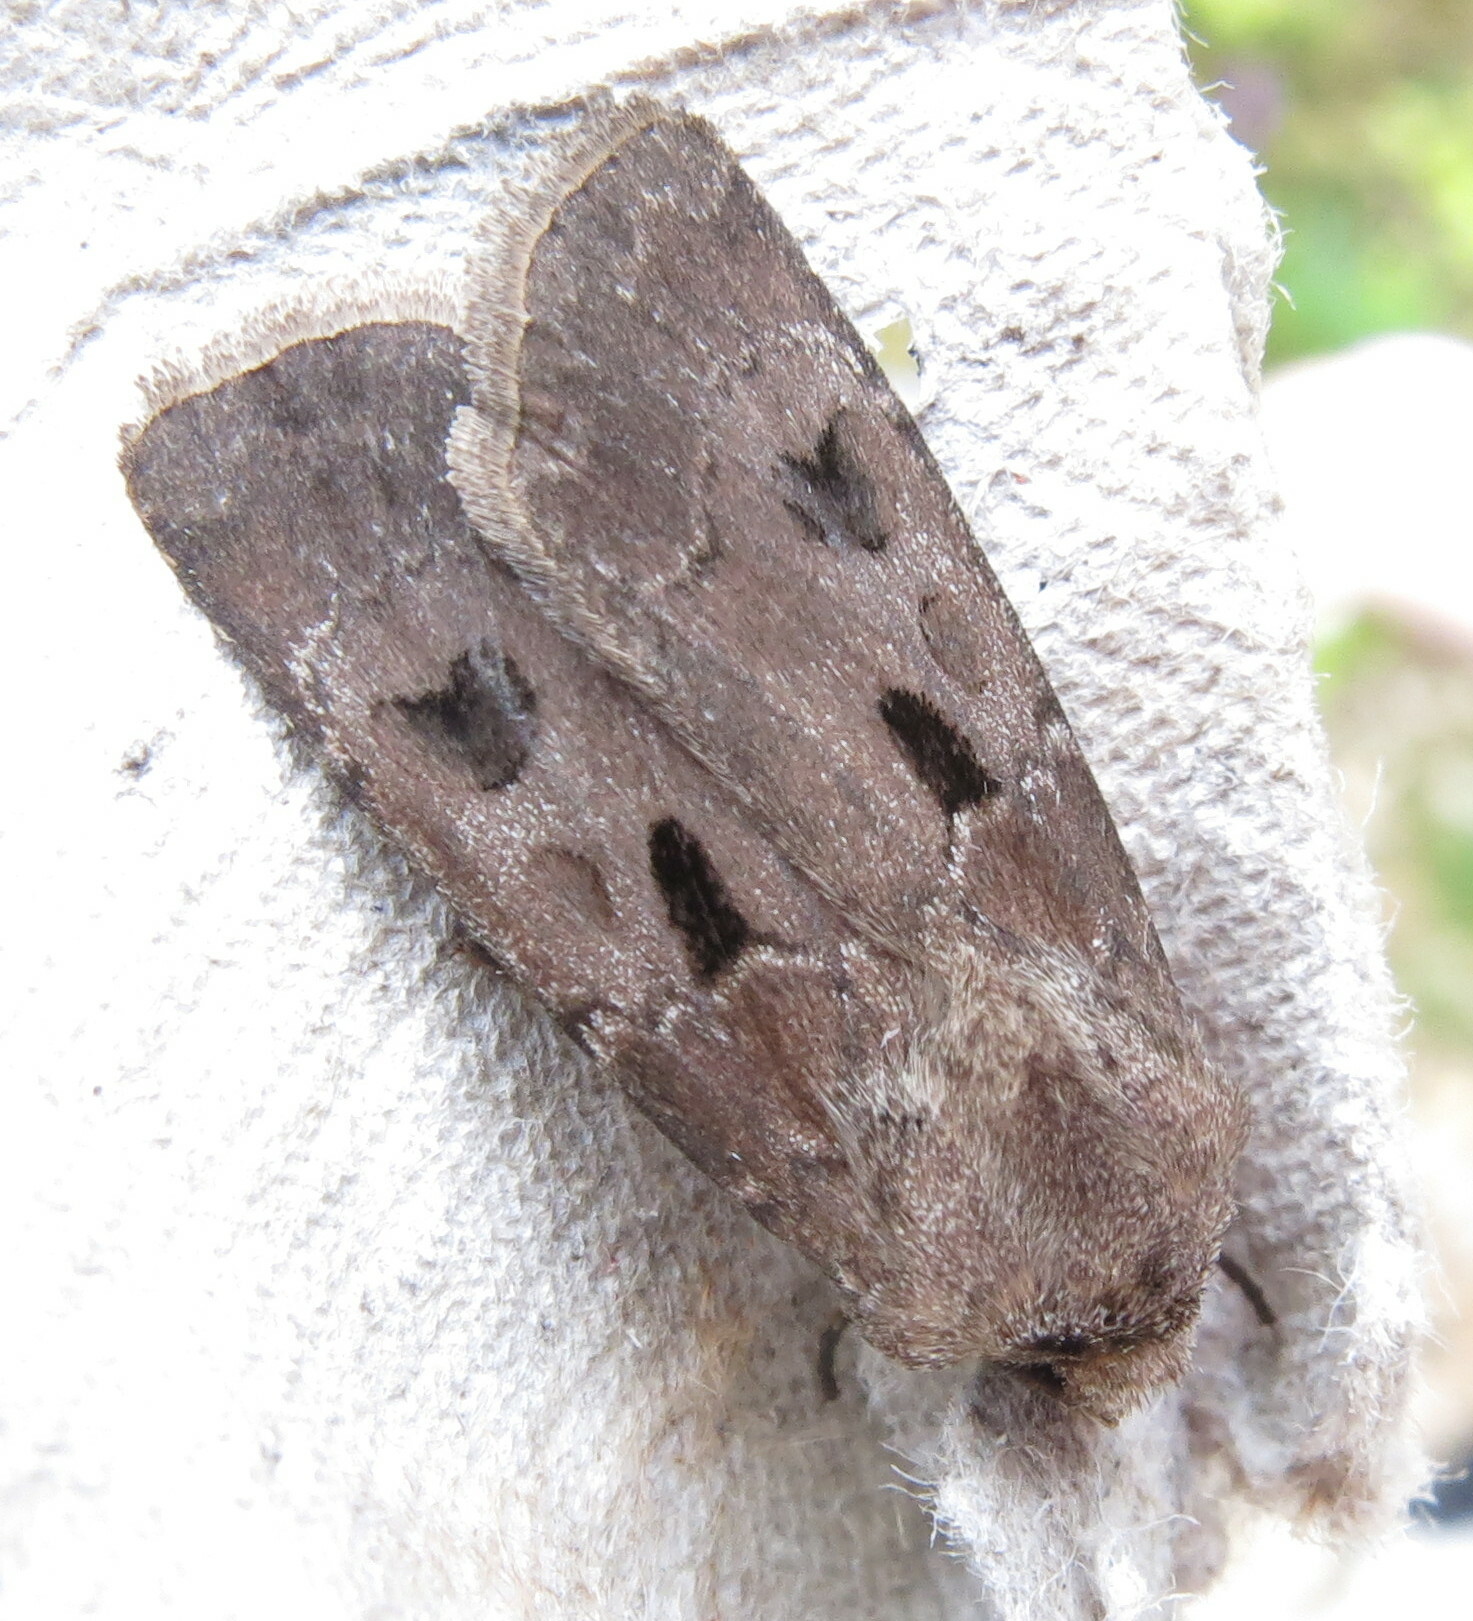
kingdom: Animalia
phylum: Arthropoda
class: Insecta
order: Lepidoptera
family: Noctuidae
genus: Agrotis
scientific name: Agrotis exclamationis
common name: Heart and dart
